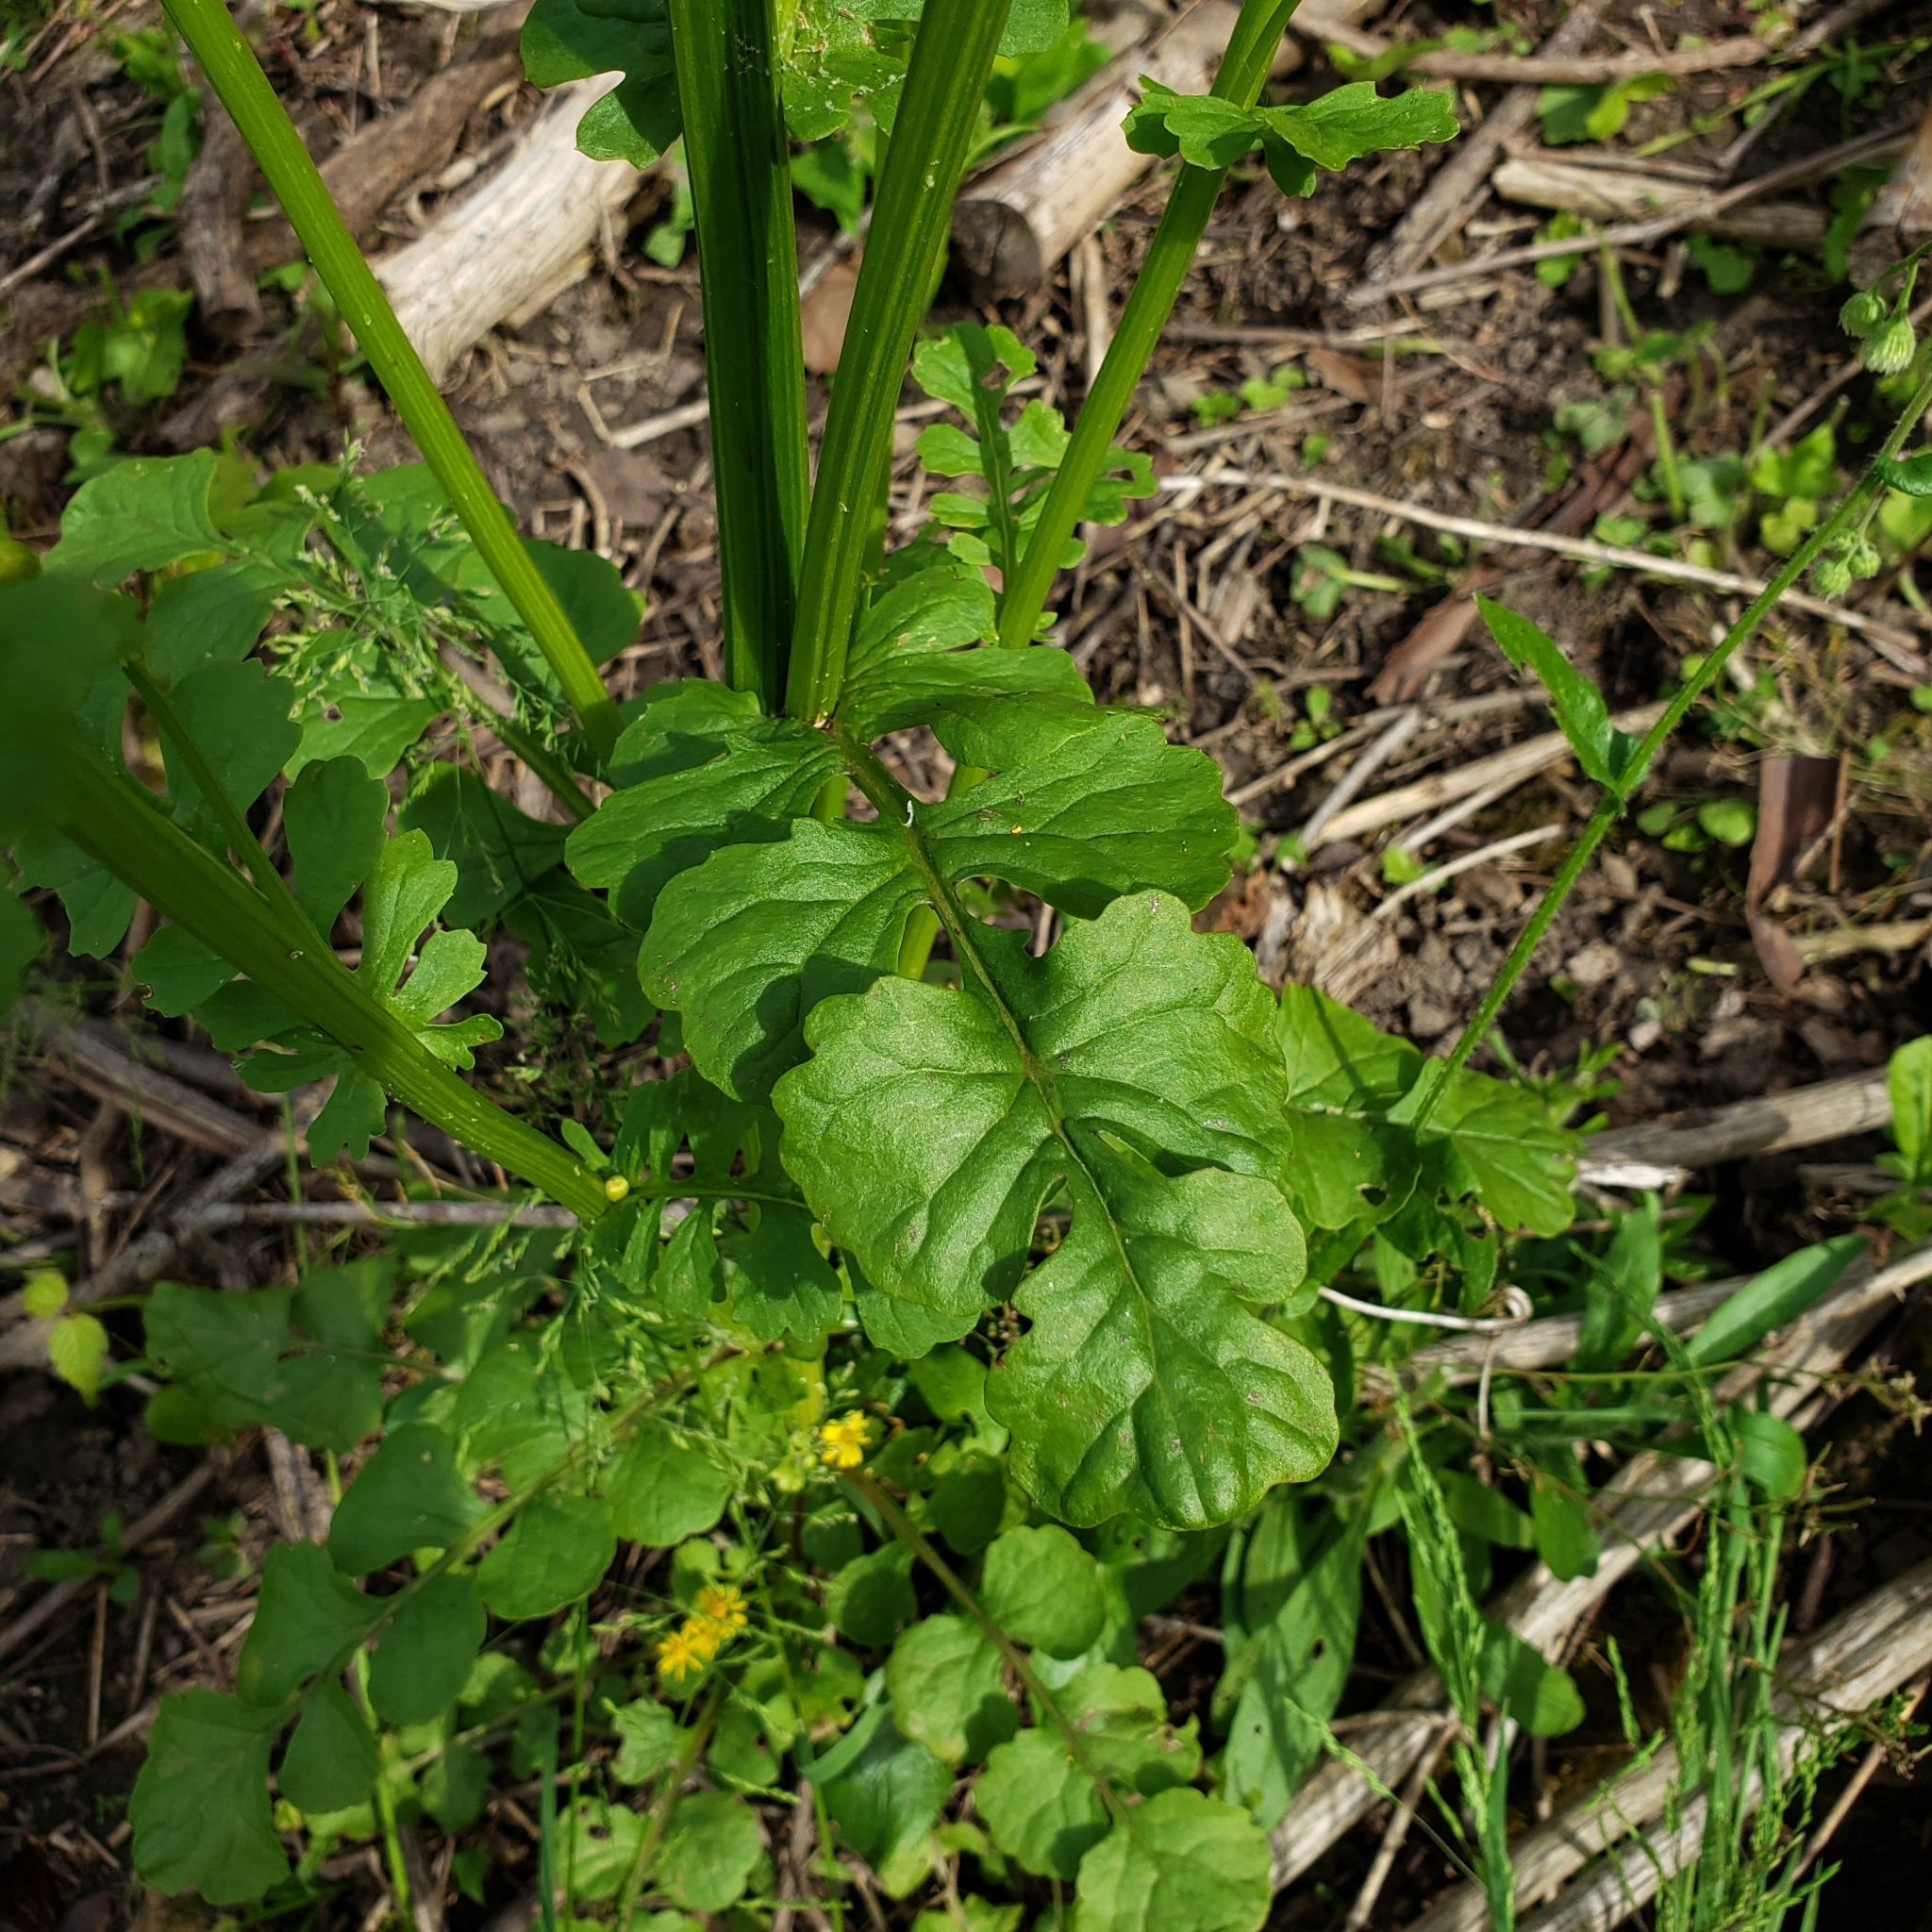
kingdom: Plantae
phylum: Tracheophyta
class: Magnoliopsida
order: Asterales
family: Asteraceae
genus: Packera
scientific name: Packera glabella
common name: Butterweed
